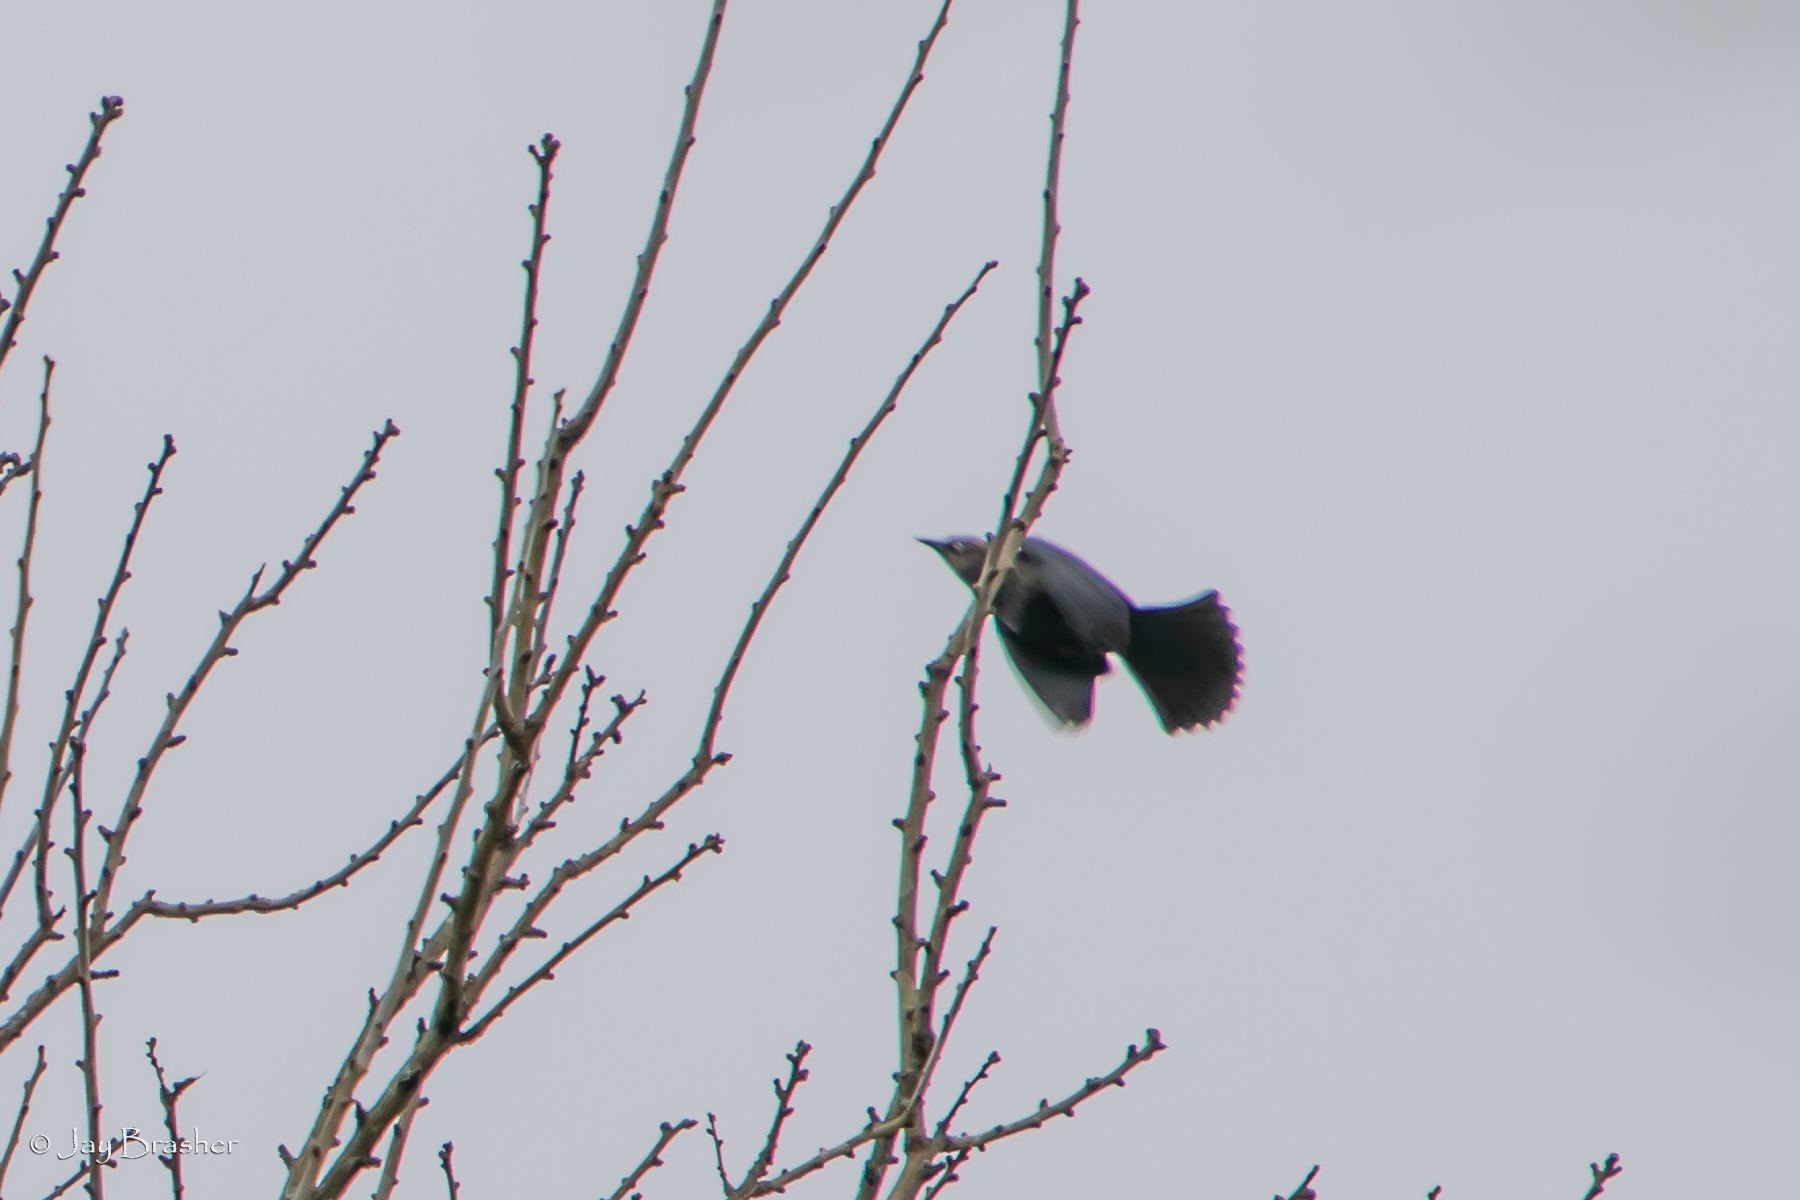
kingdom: Animalia
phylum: Chordata
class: Aves
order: Passeriformes
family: Icteridae
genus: Euphagus
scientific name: Euphagus carolinus
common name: Rusty blackbird
